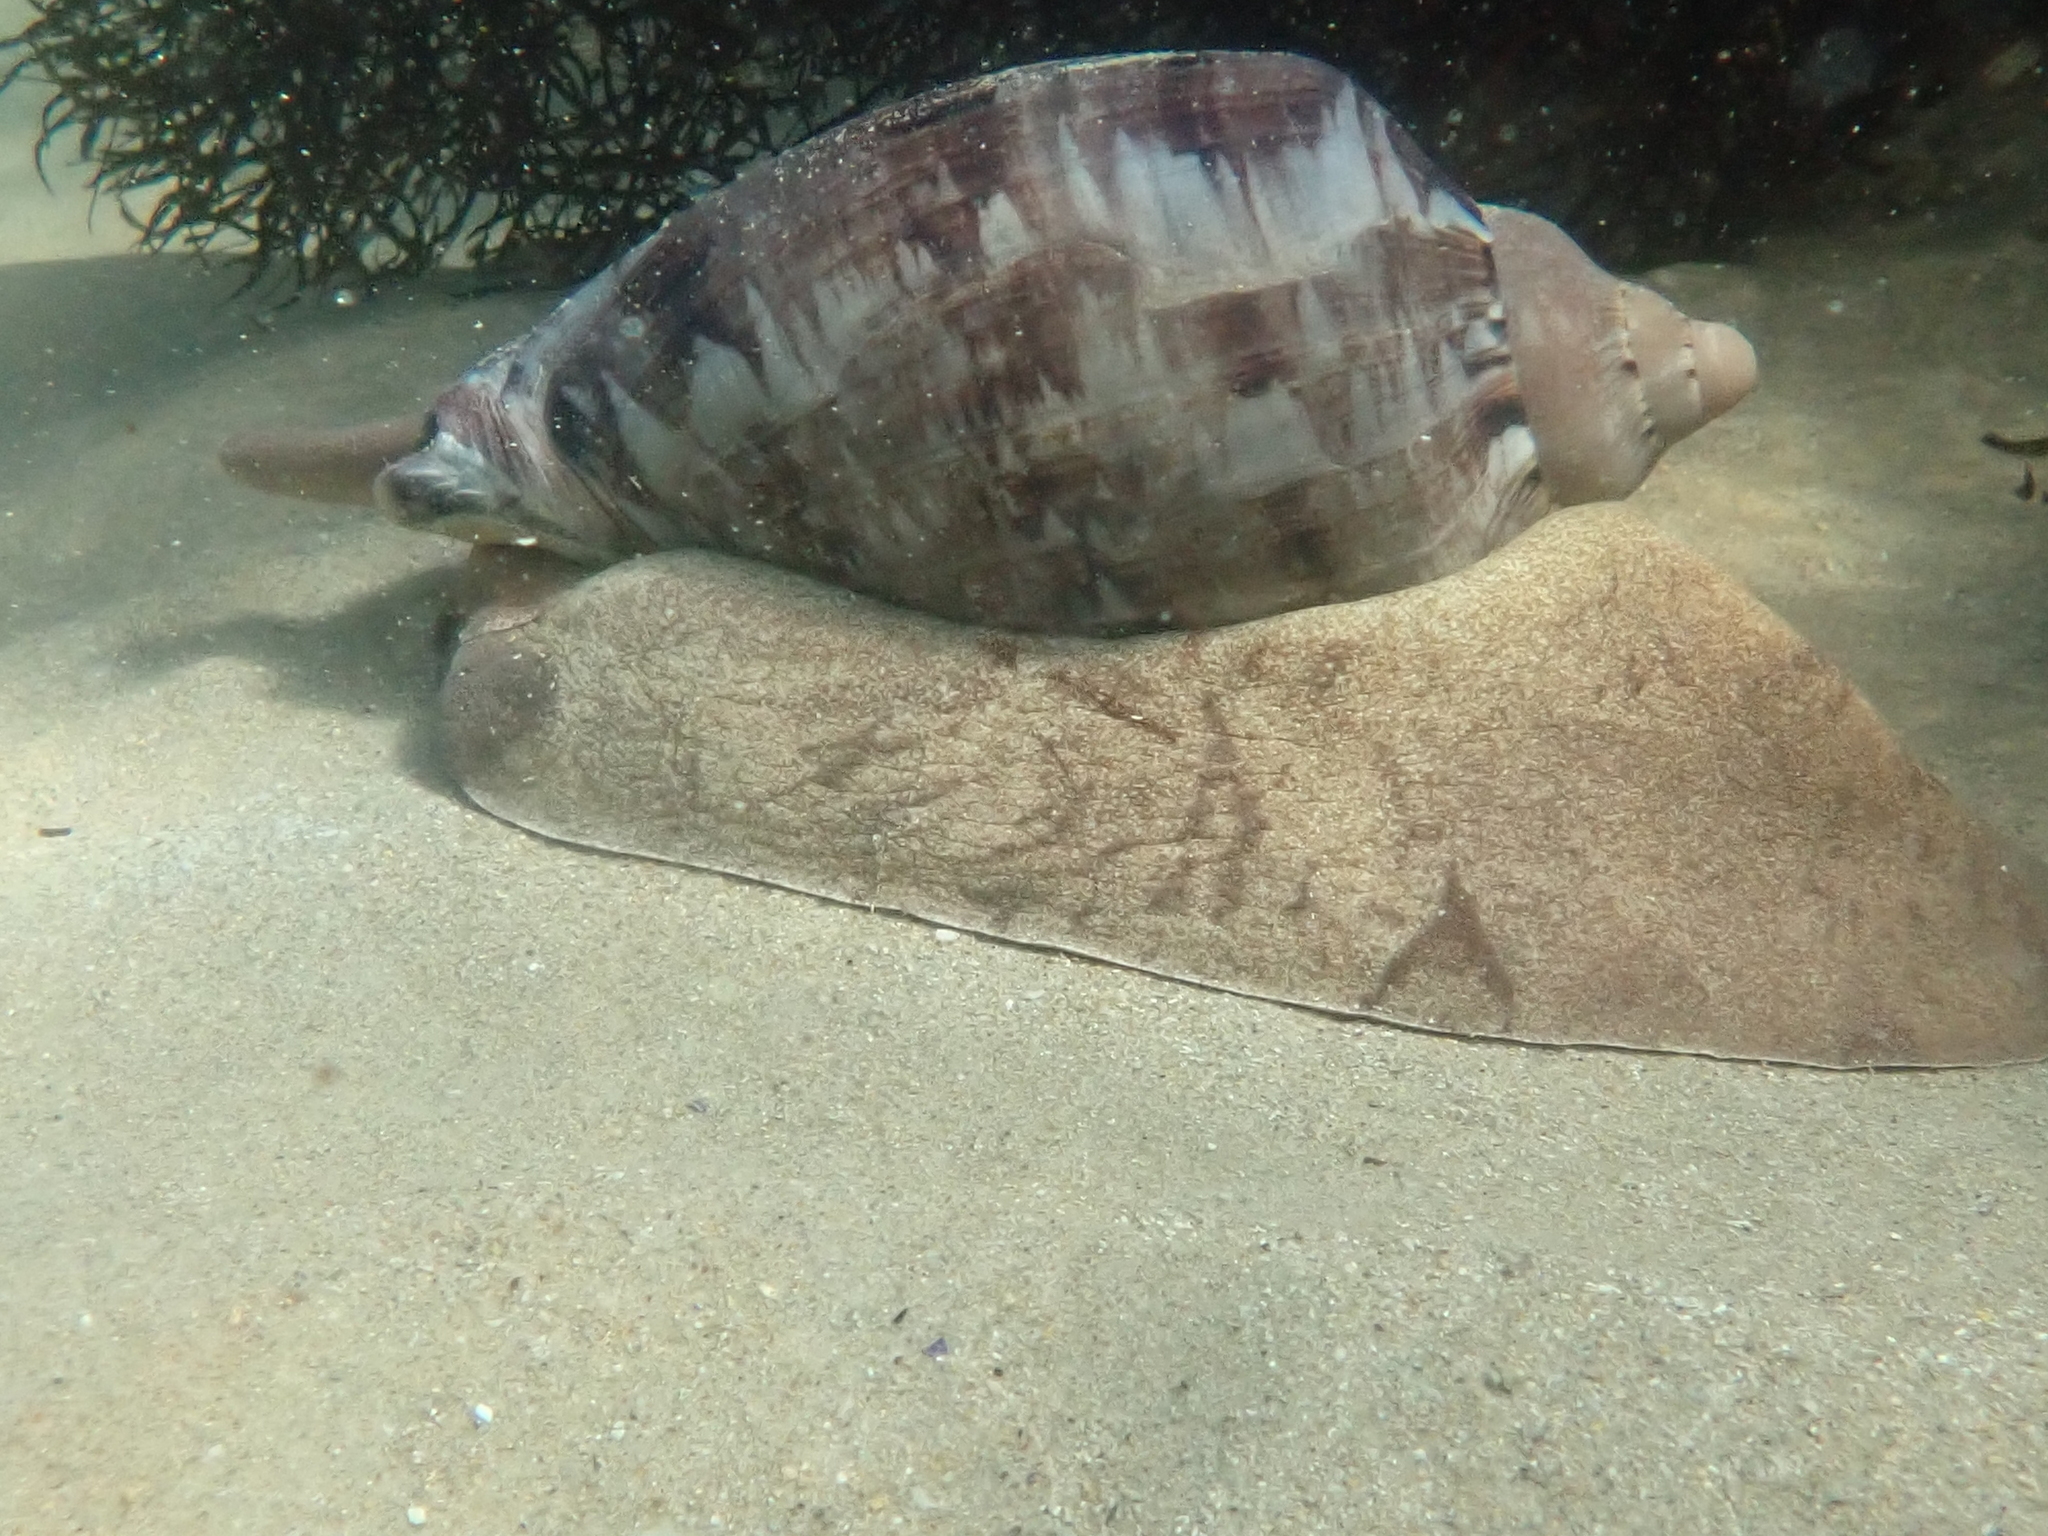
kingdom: Animalia
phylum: Mollusca
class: Gastropoda
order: Neogastropoda
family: Volutidae
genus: Cymbiola
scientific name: Cymbiola magnifica
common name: Magnificent volute
